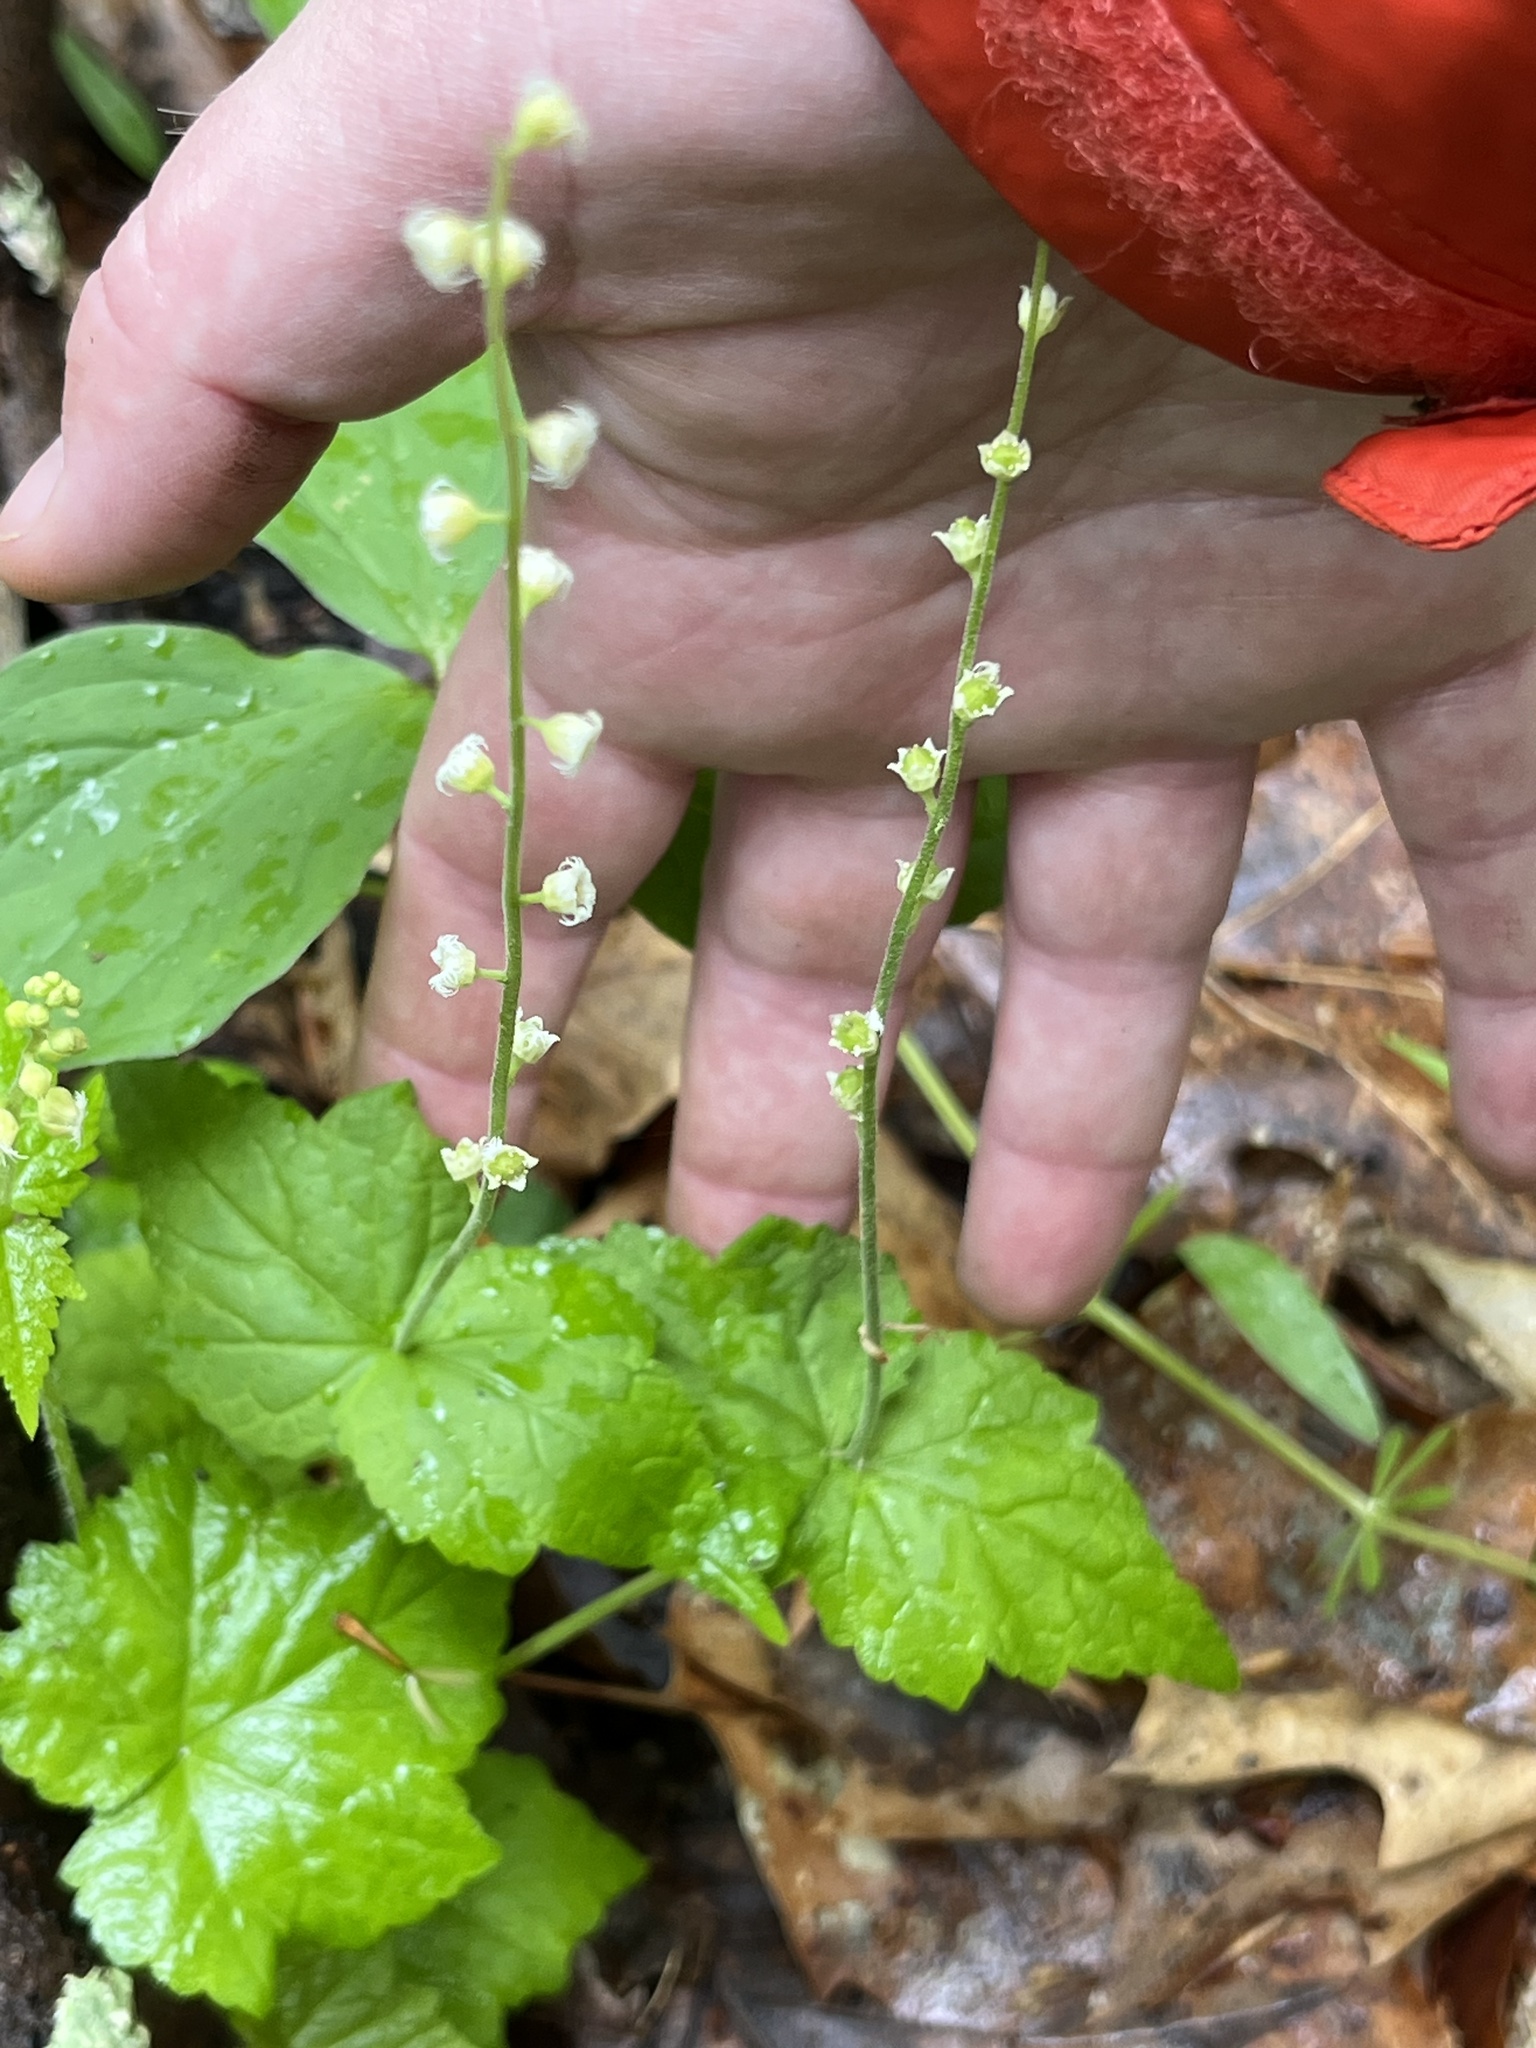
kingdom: Plantae
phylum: Tracheophyta
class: Magnoliopsida
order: Saxifragales
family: Saxifragaceae
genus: Mitella
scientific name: Mitella diphylla
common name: Coolwort
